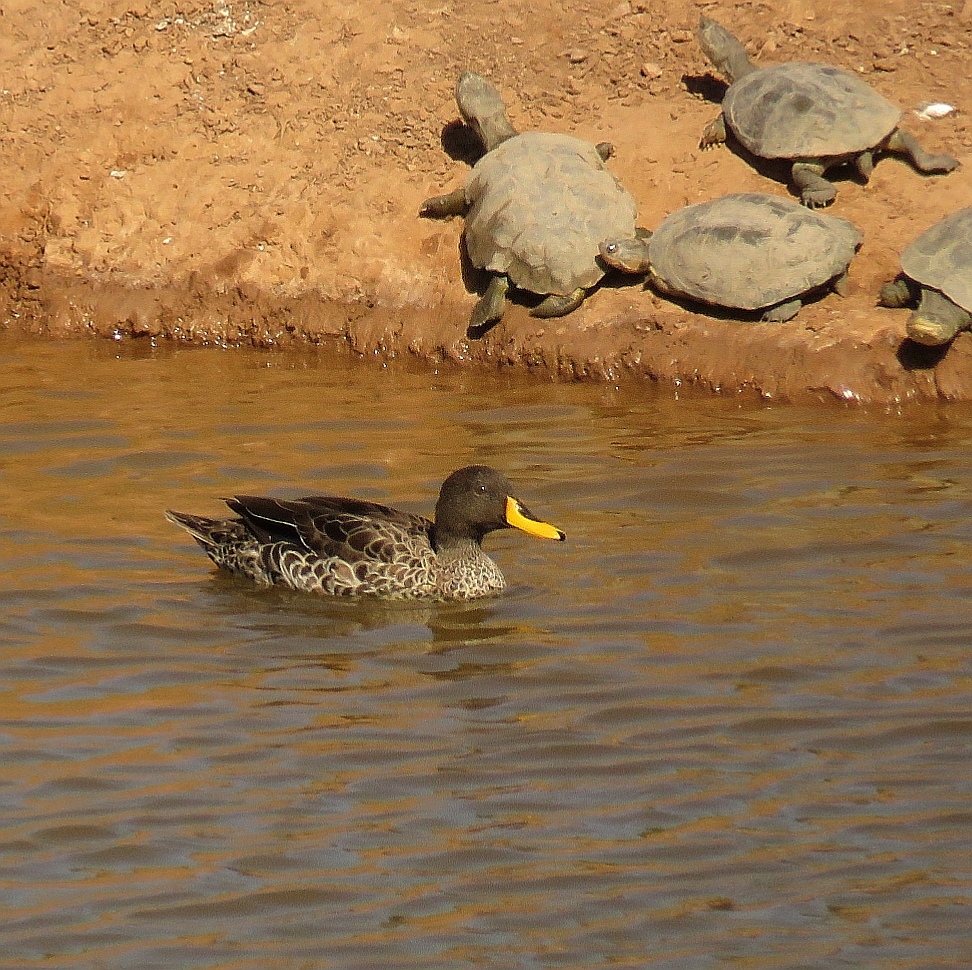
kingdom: Animalia
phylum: Chordata
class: Aves
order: Anseriformes
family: Anatidae
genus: Anas
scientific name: Anas undulata
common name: Yellow-billed duck
